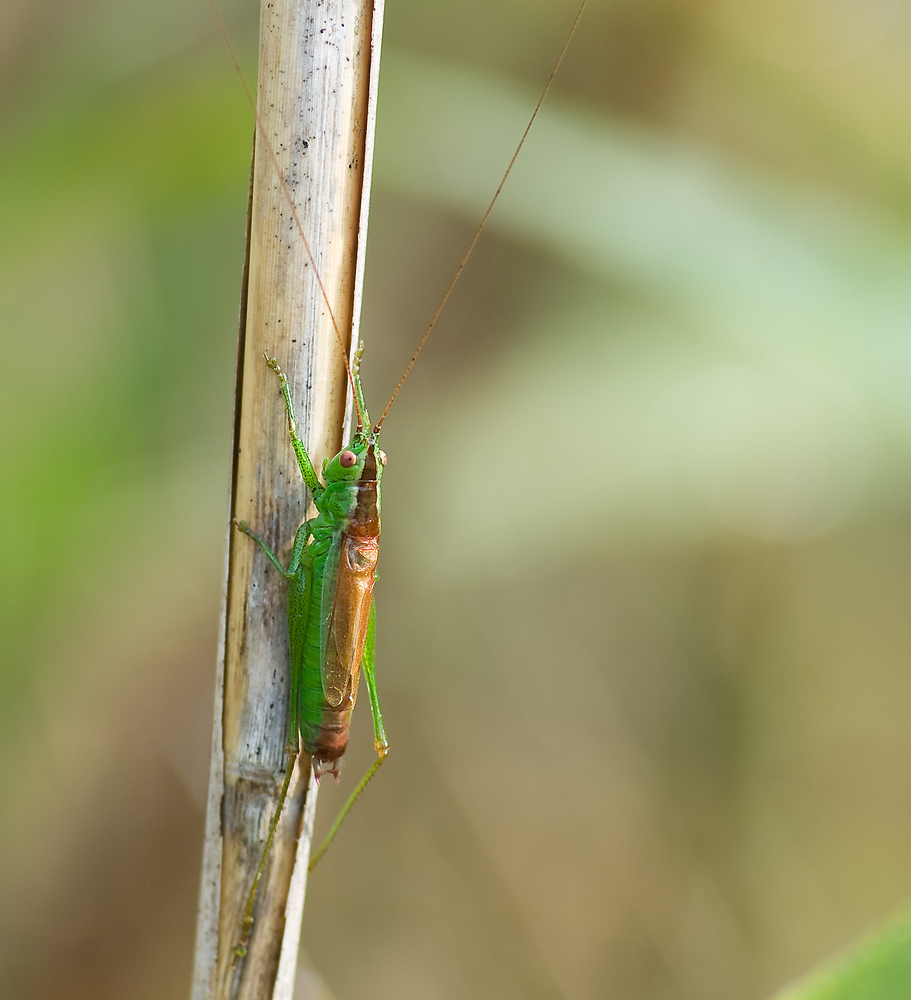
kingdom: Animalia
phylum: Arthropoda
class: Insecta
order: Orthoptera
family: Tettigoniidae
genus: Conocephalus
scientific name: Conocephalus dorsalis
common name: Short-winged conehead
